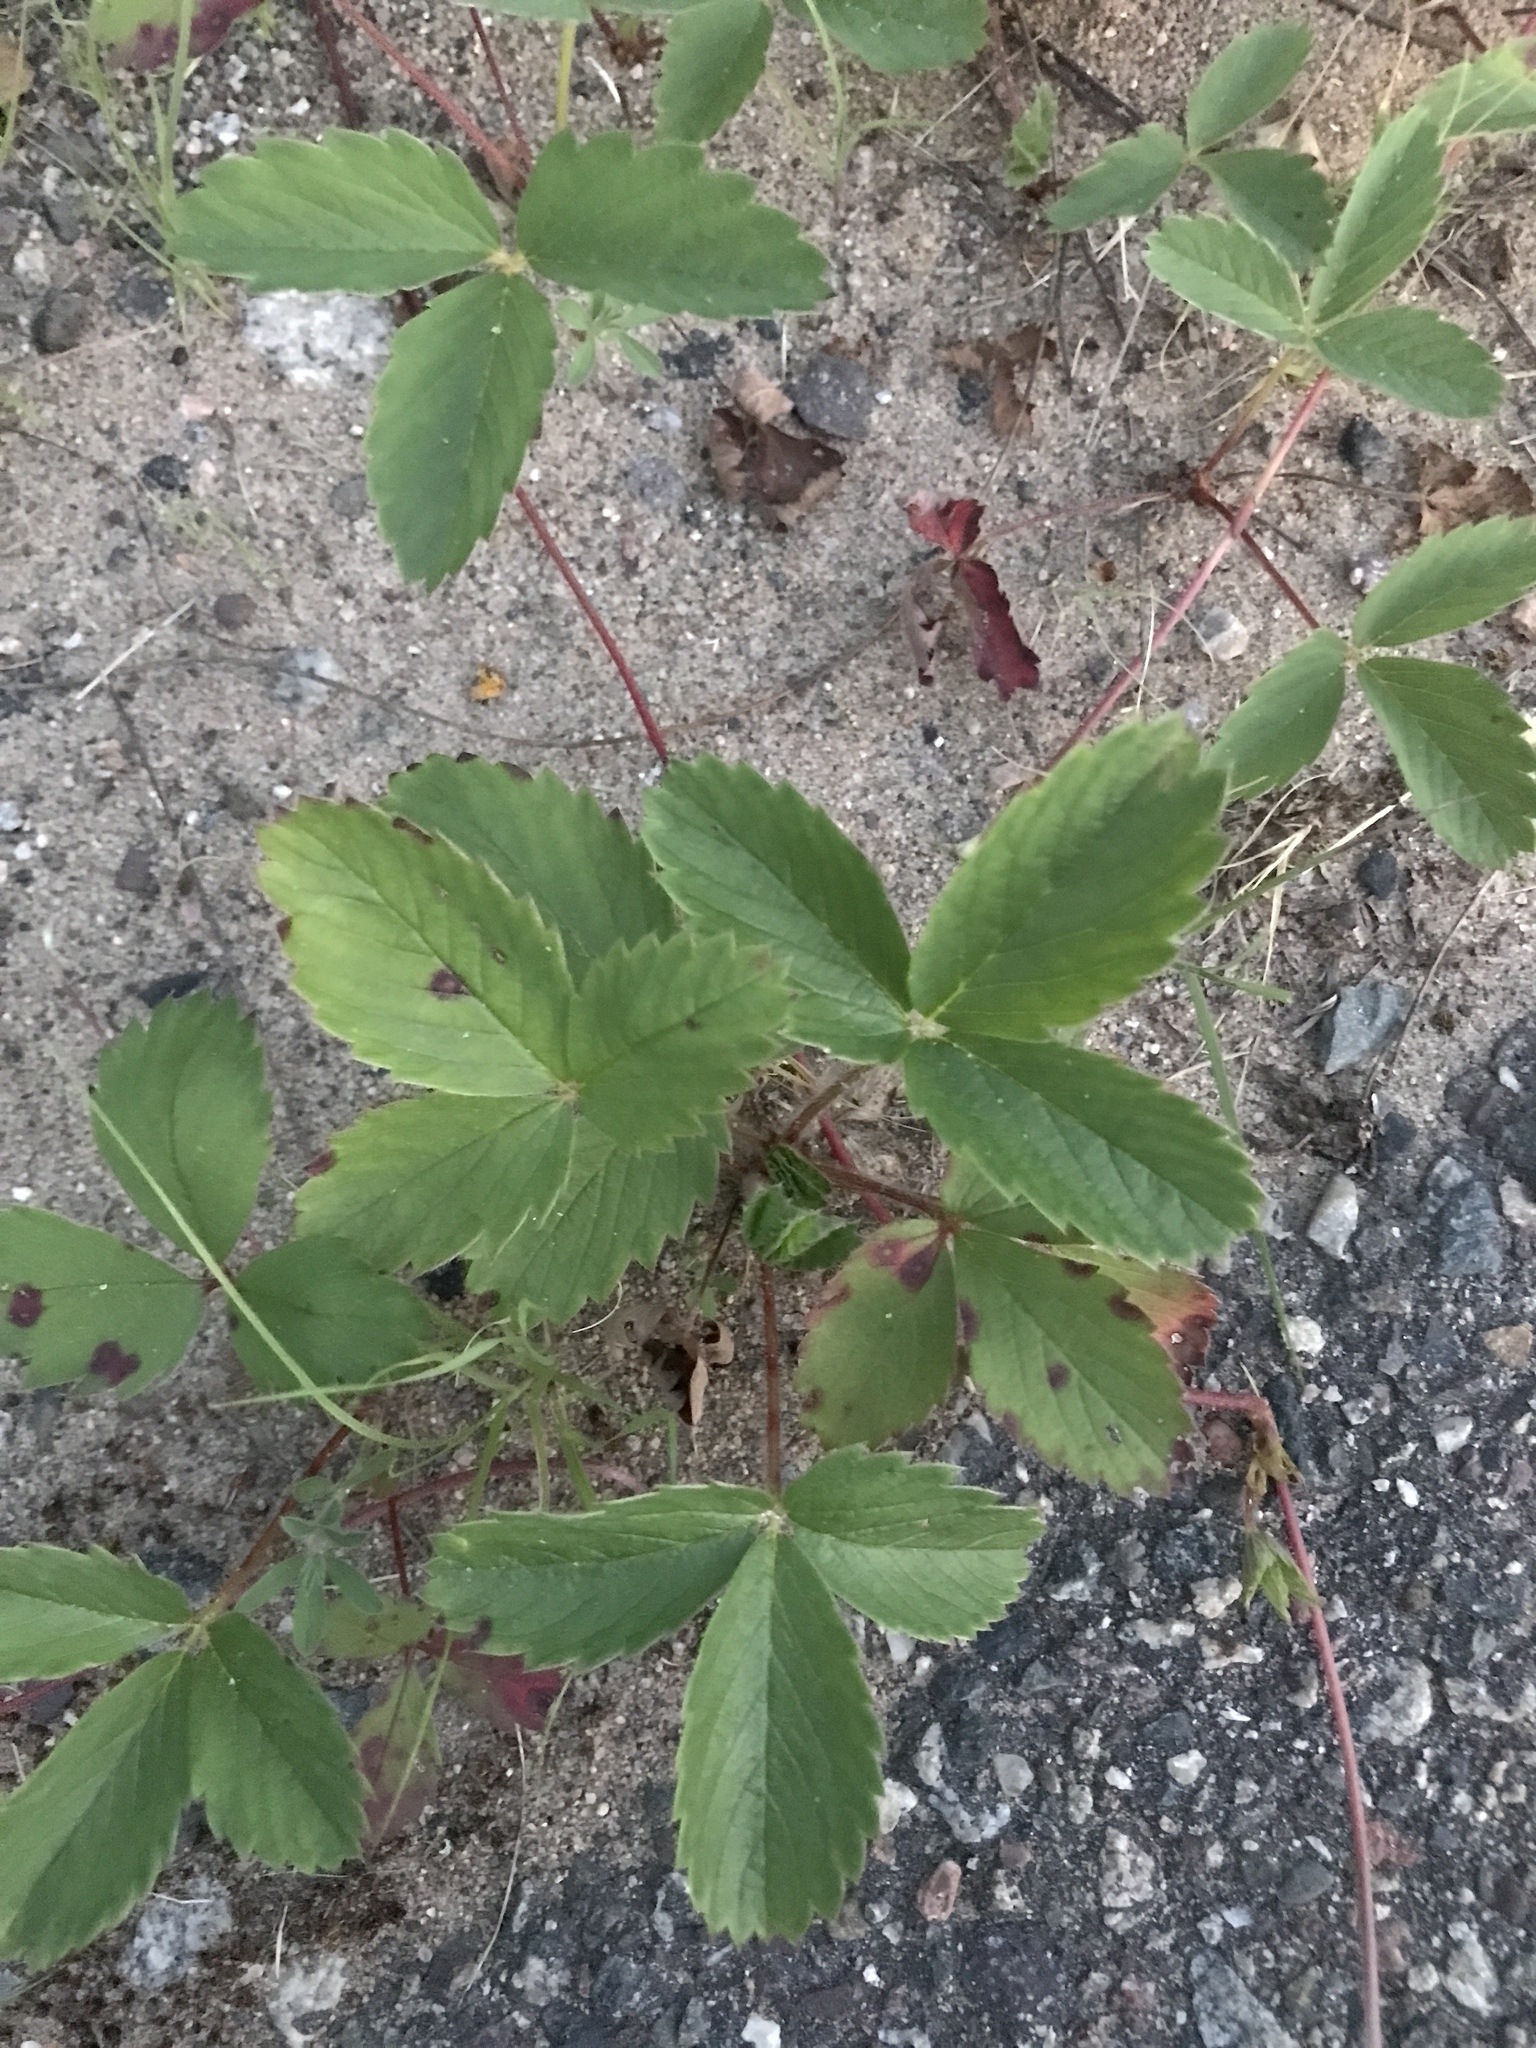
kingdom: Plantae
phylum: Tracheophyta
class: Magnoliopsida
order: Rosales
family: Rosaceae
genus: Fragaria
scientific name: Fragaria virginiana
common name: Thickleaved wild strawberry
